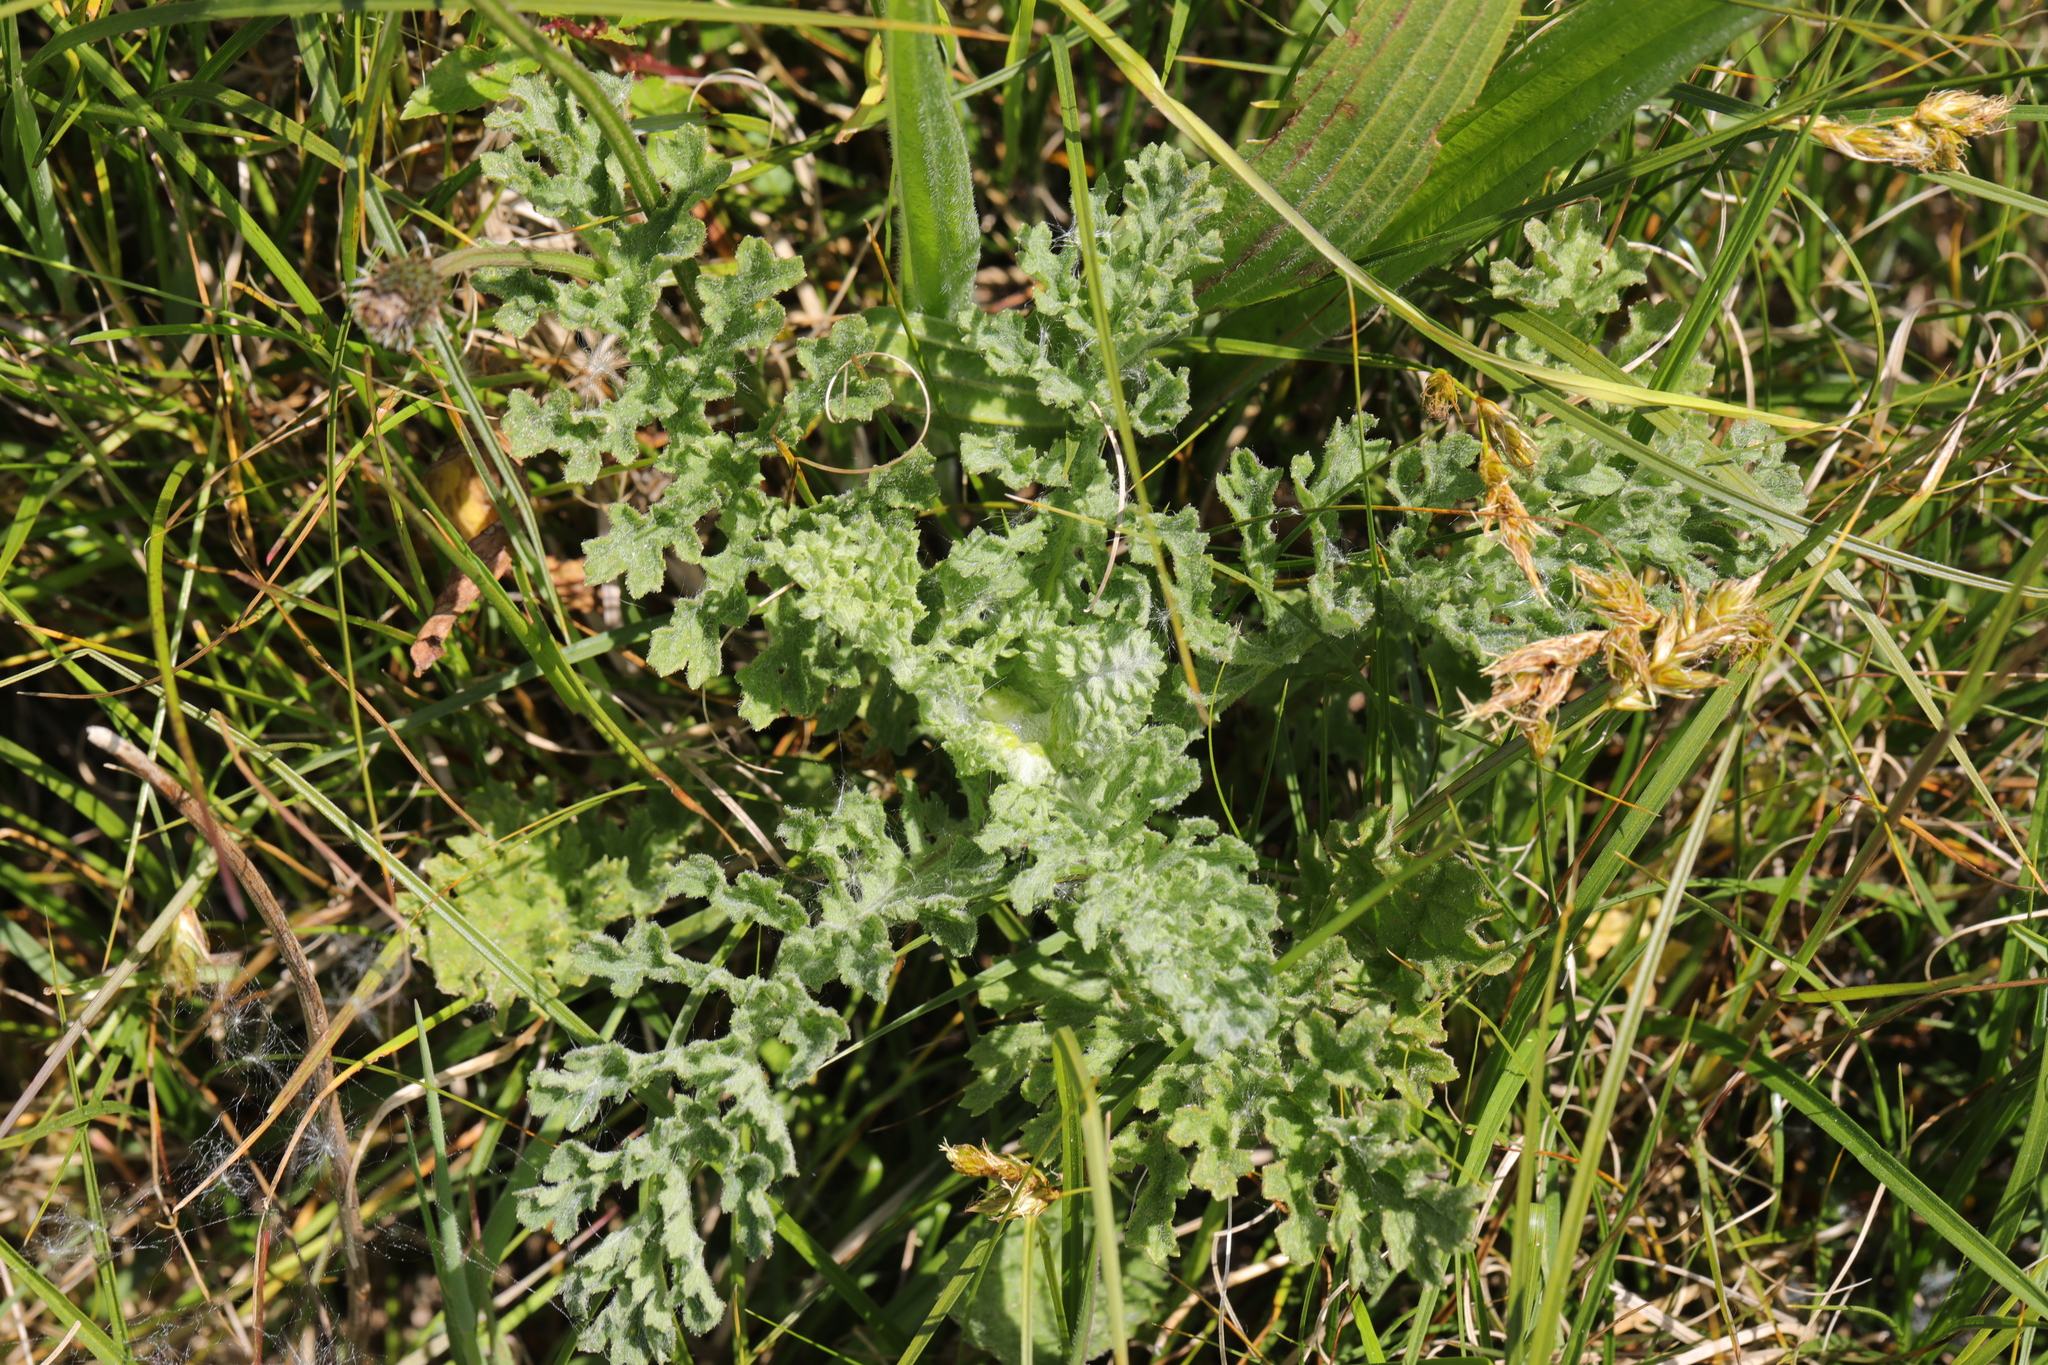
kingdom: Plantae
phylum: Tracheophyta
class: Magnoliopsida
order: Asterales
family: Asteraceae
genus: Jacobaea
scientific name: Jacobaea vulgaris
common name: Stinking willie
